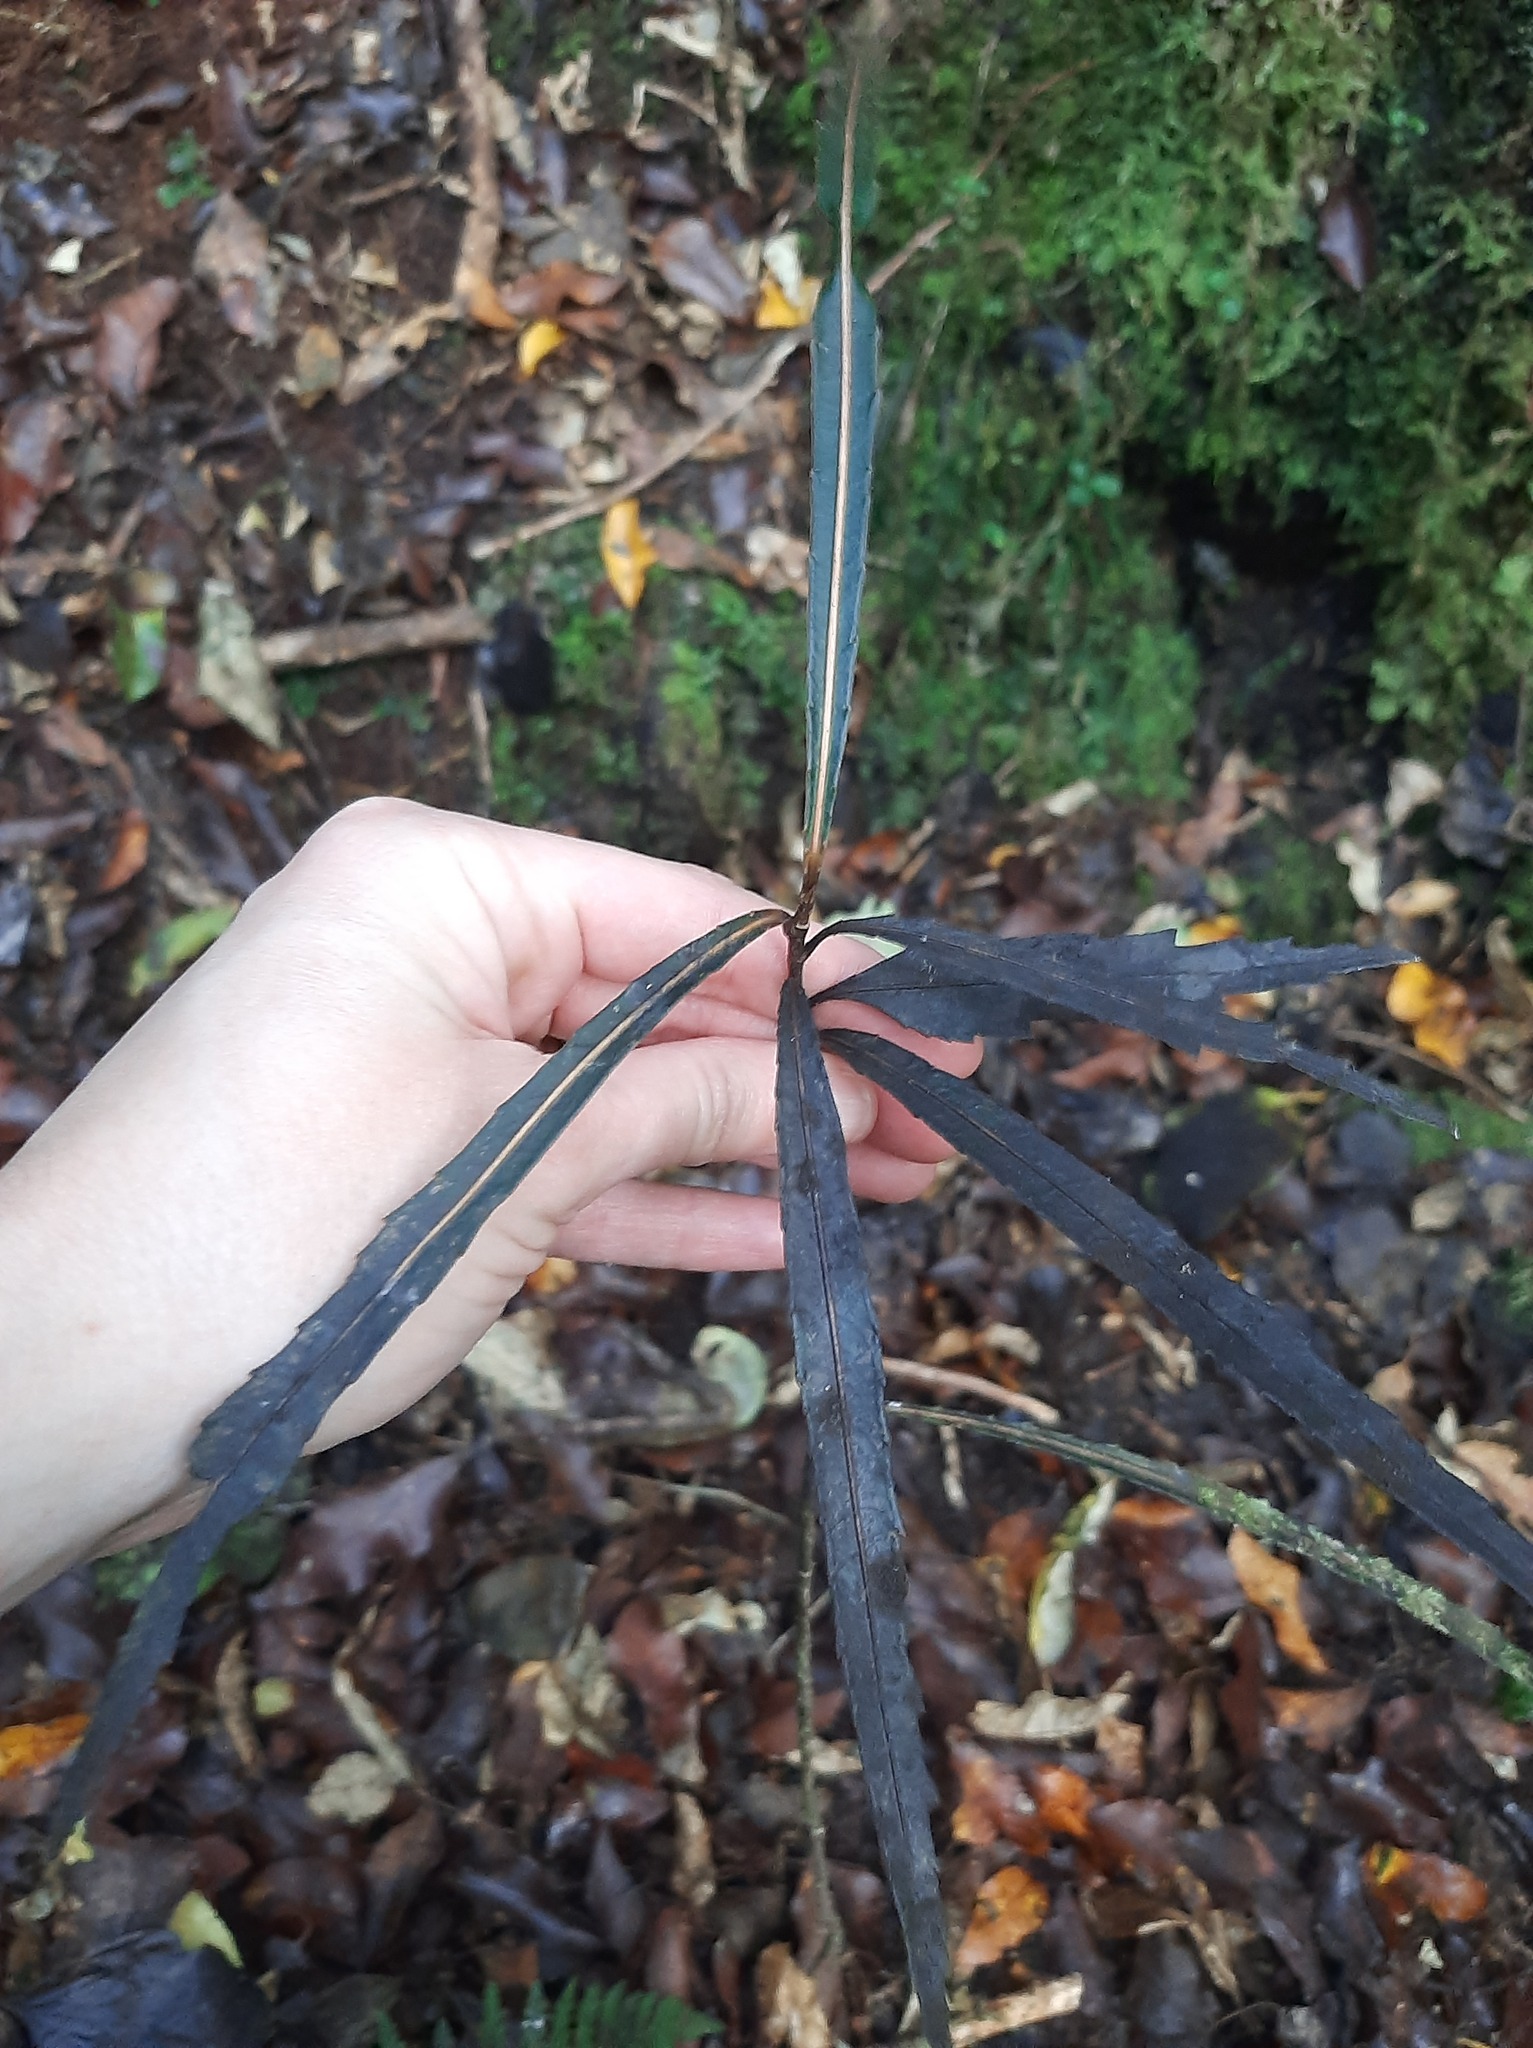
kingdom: Plantae
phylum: Tracheophyta
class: Magnoliopsida
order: Apiales
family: Araliaceae
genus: Pseudopanax
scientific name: Pseudopanax crassifolius
